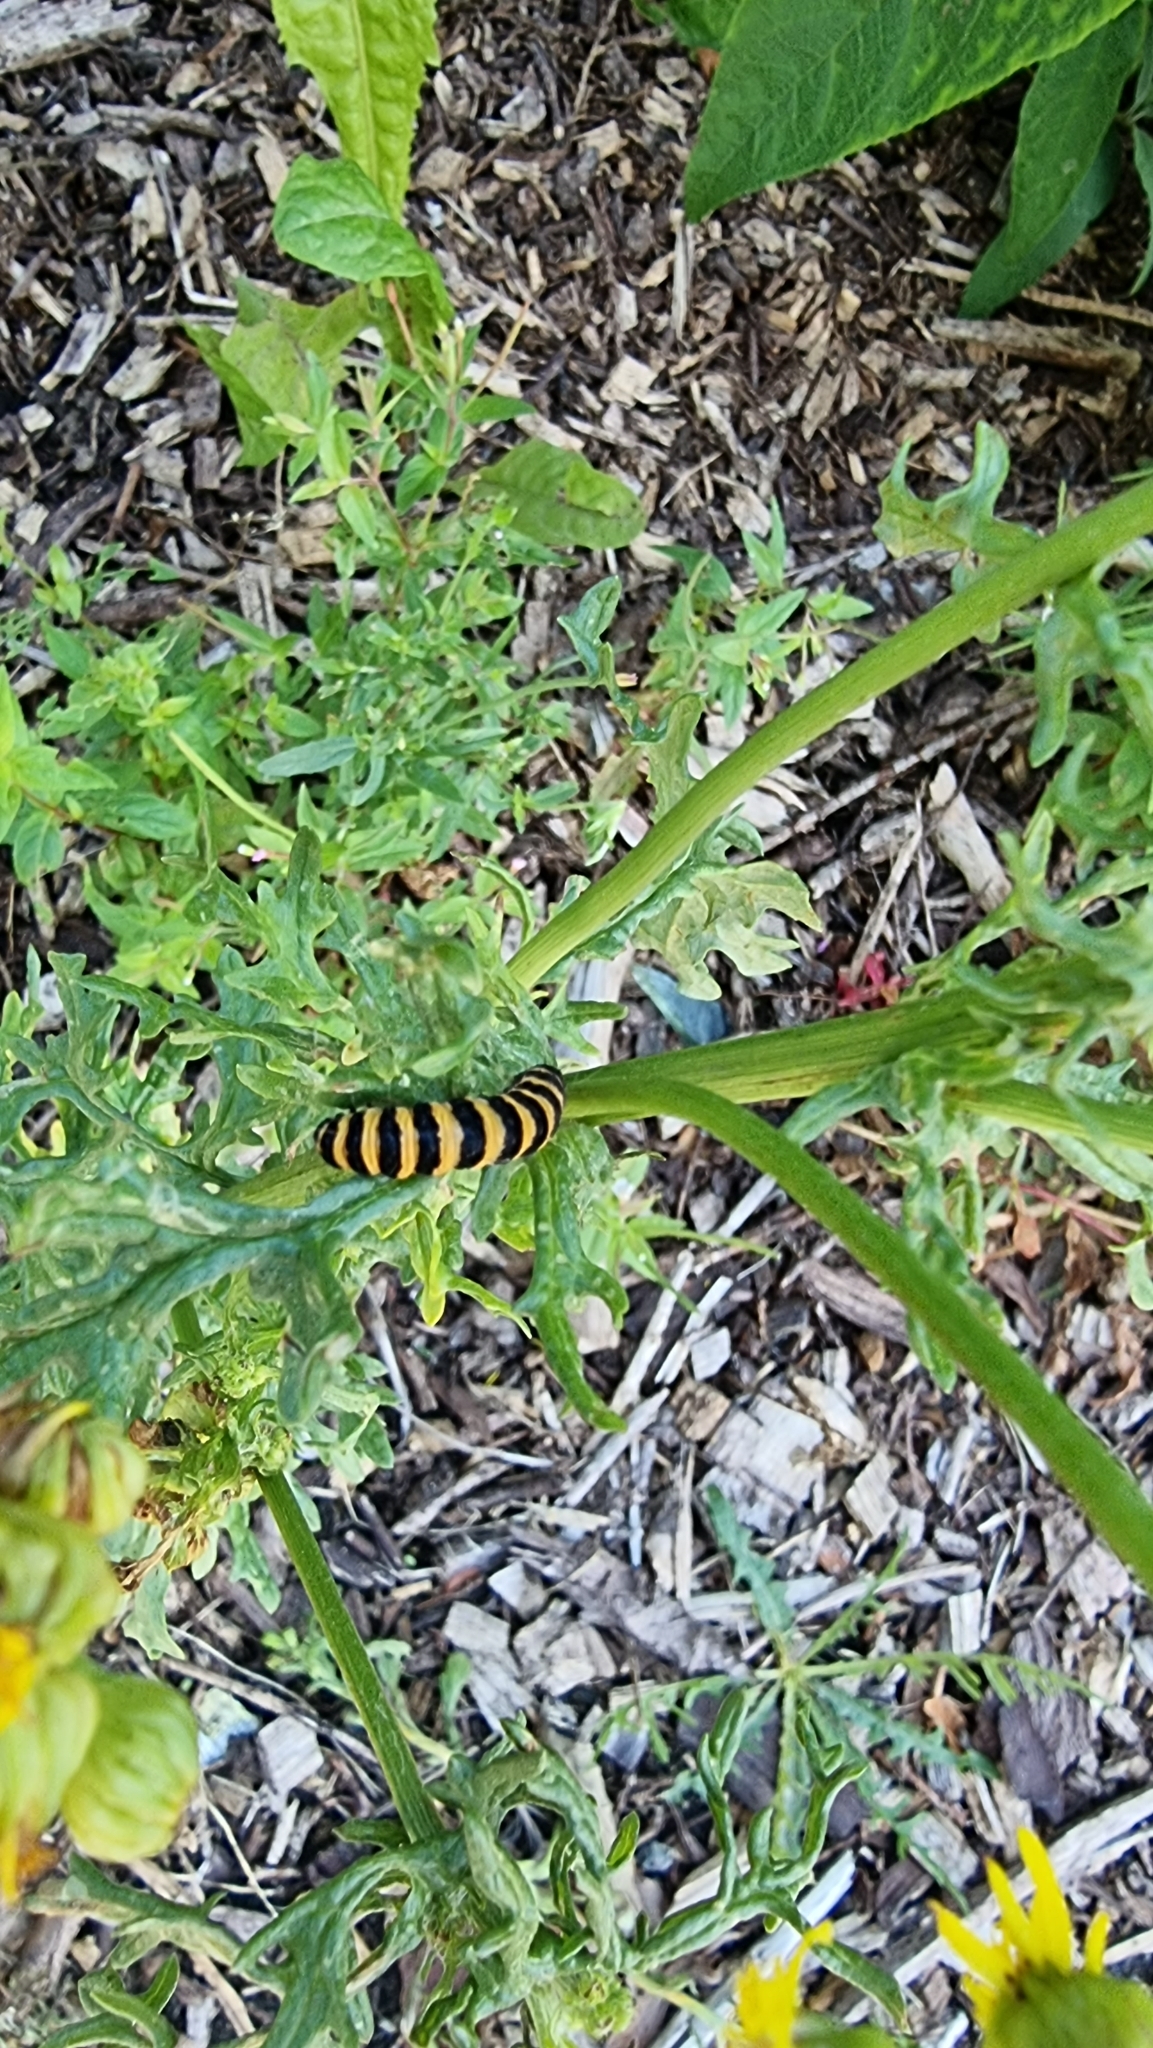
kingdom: Animalia
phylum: Arthropoda
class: Insecta
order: Lepidoptera
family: Erebidae
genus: Tyria
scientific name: Tyria jacobaeae
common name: Cinnabar
